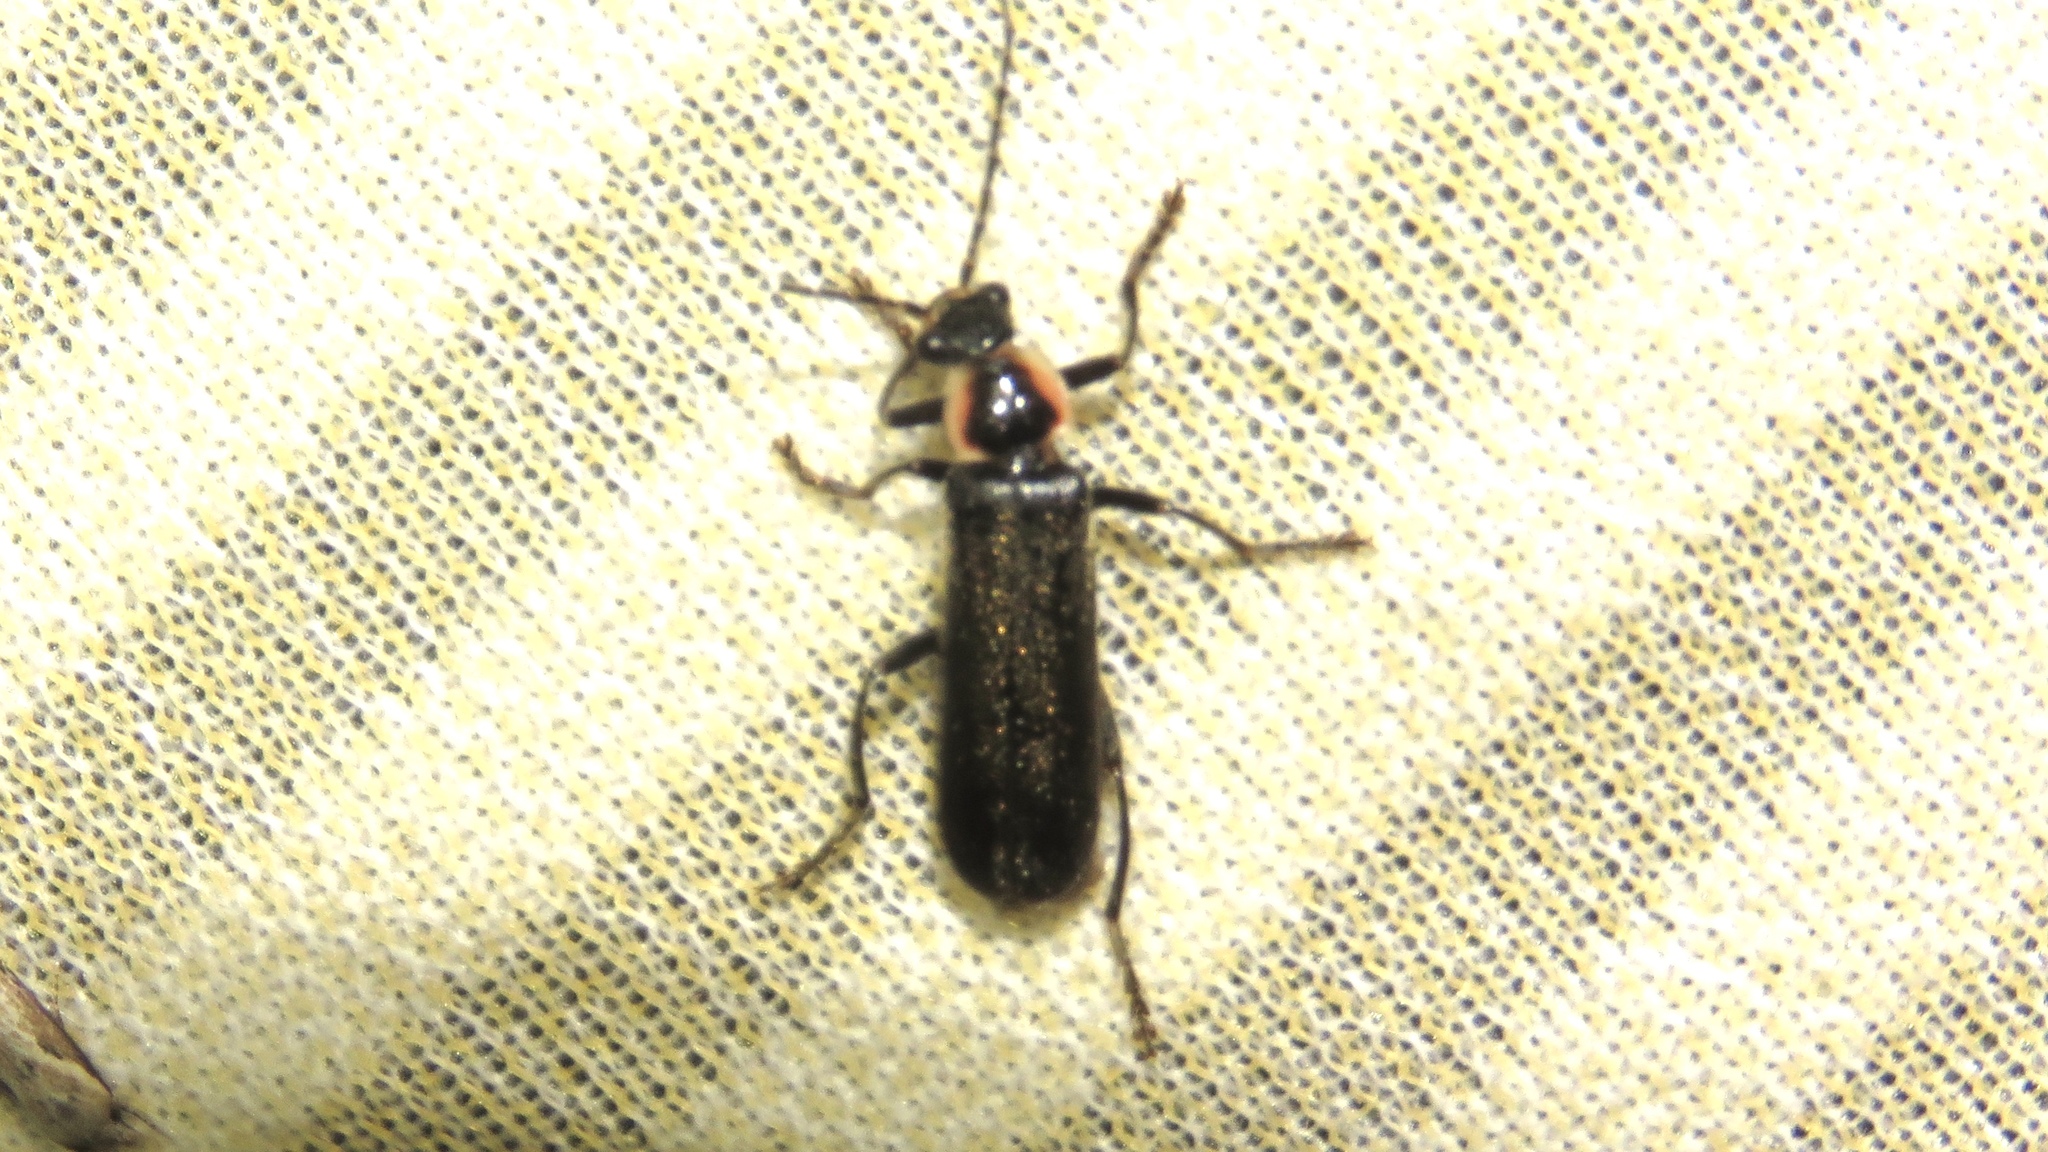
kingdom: Animalia
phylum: Arthropoda
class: Insecta
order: Coleoptera
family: Cantharidae
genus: Rhaxonycha
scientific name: Rhaxonycha carolina
